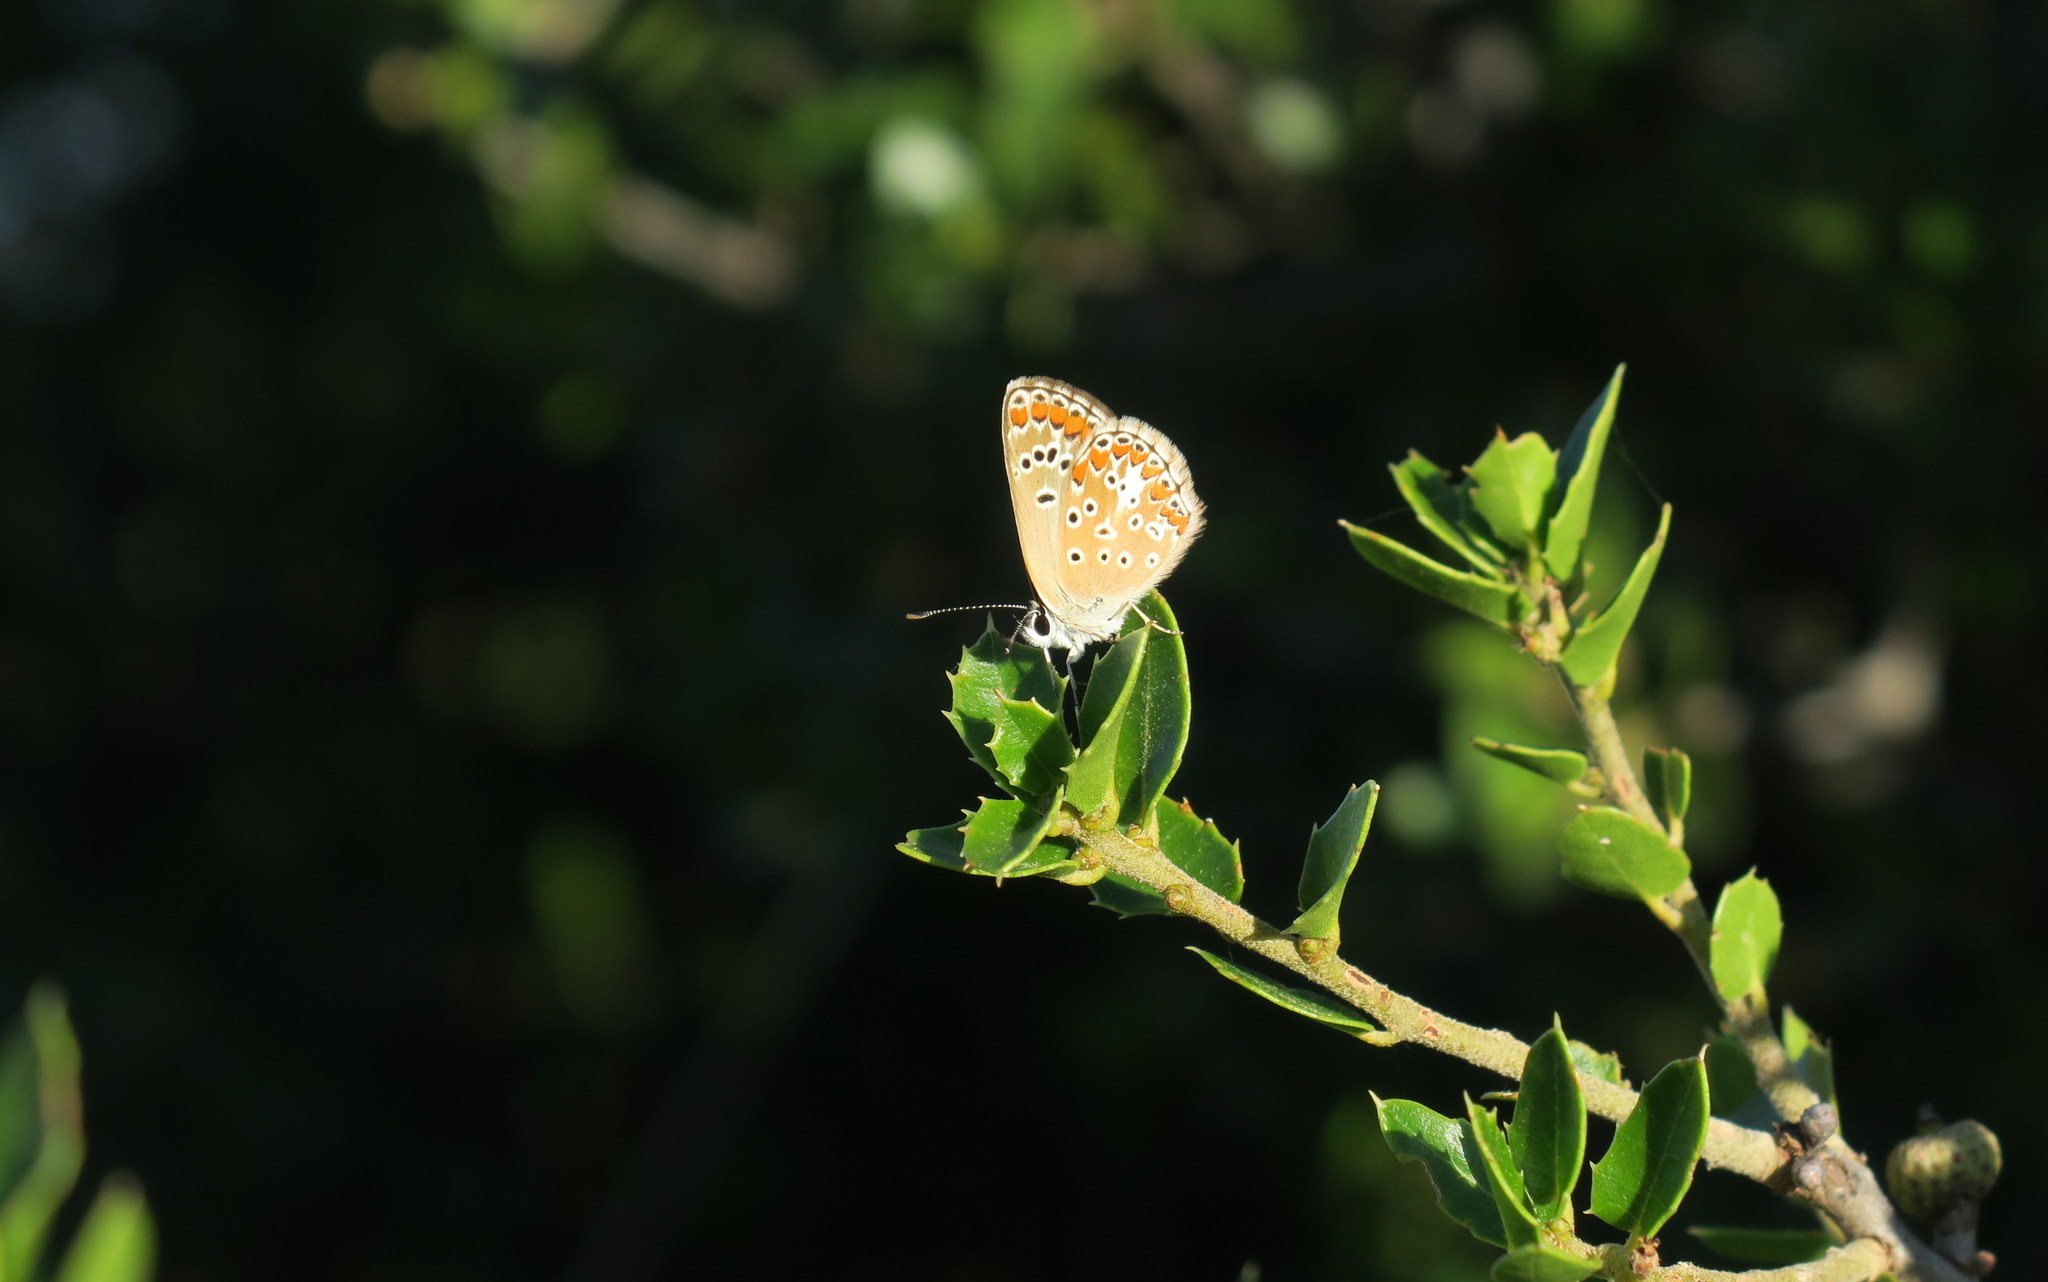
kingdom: Animalia
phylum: Arthropoda
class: Insecta
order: Lepidoptera
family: Lycaenidae
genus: Aricia
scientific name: Aricia agestis
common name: Brown argus
